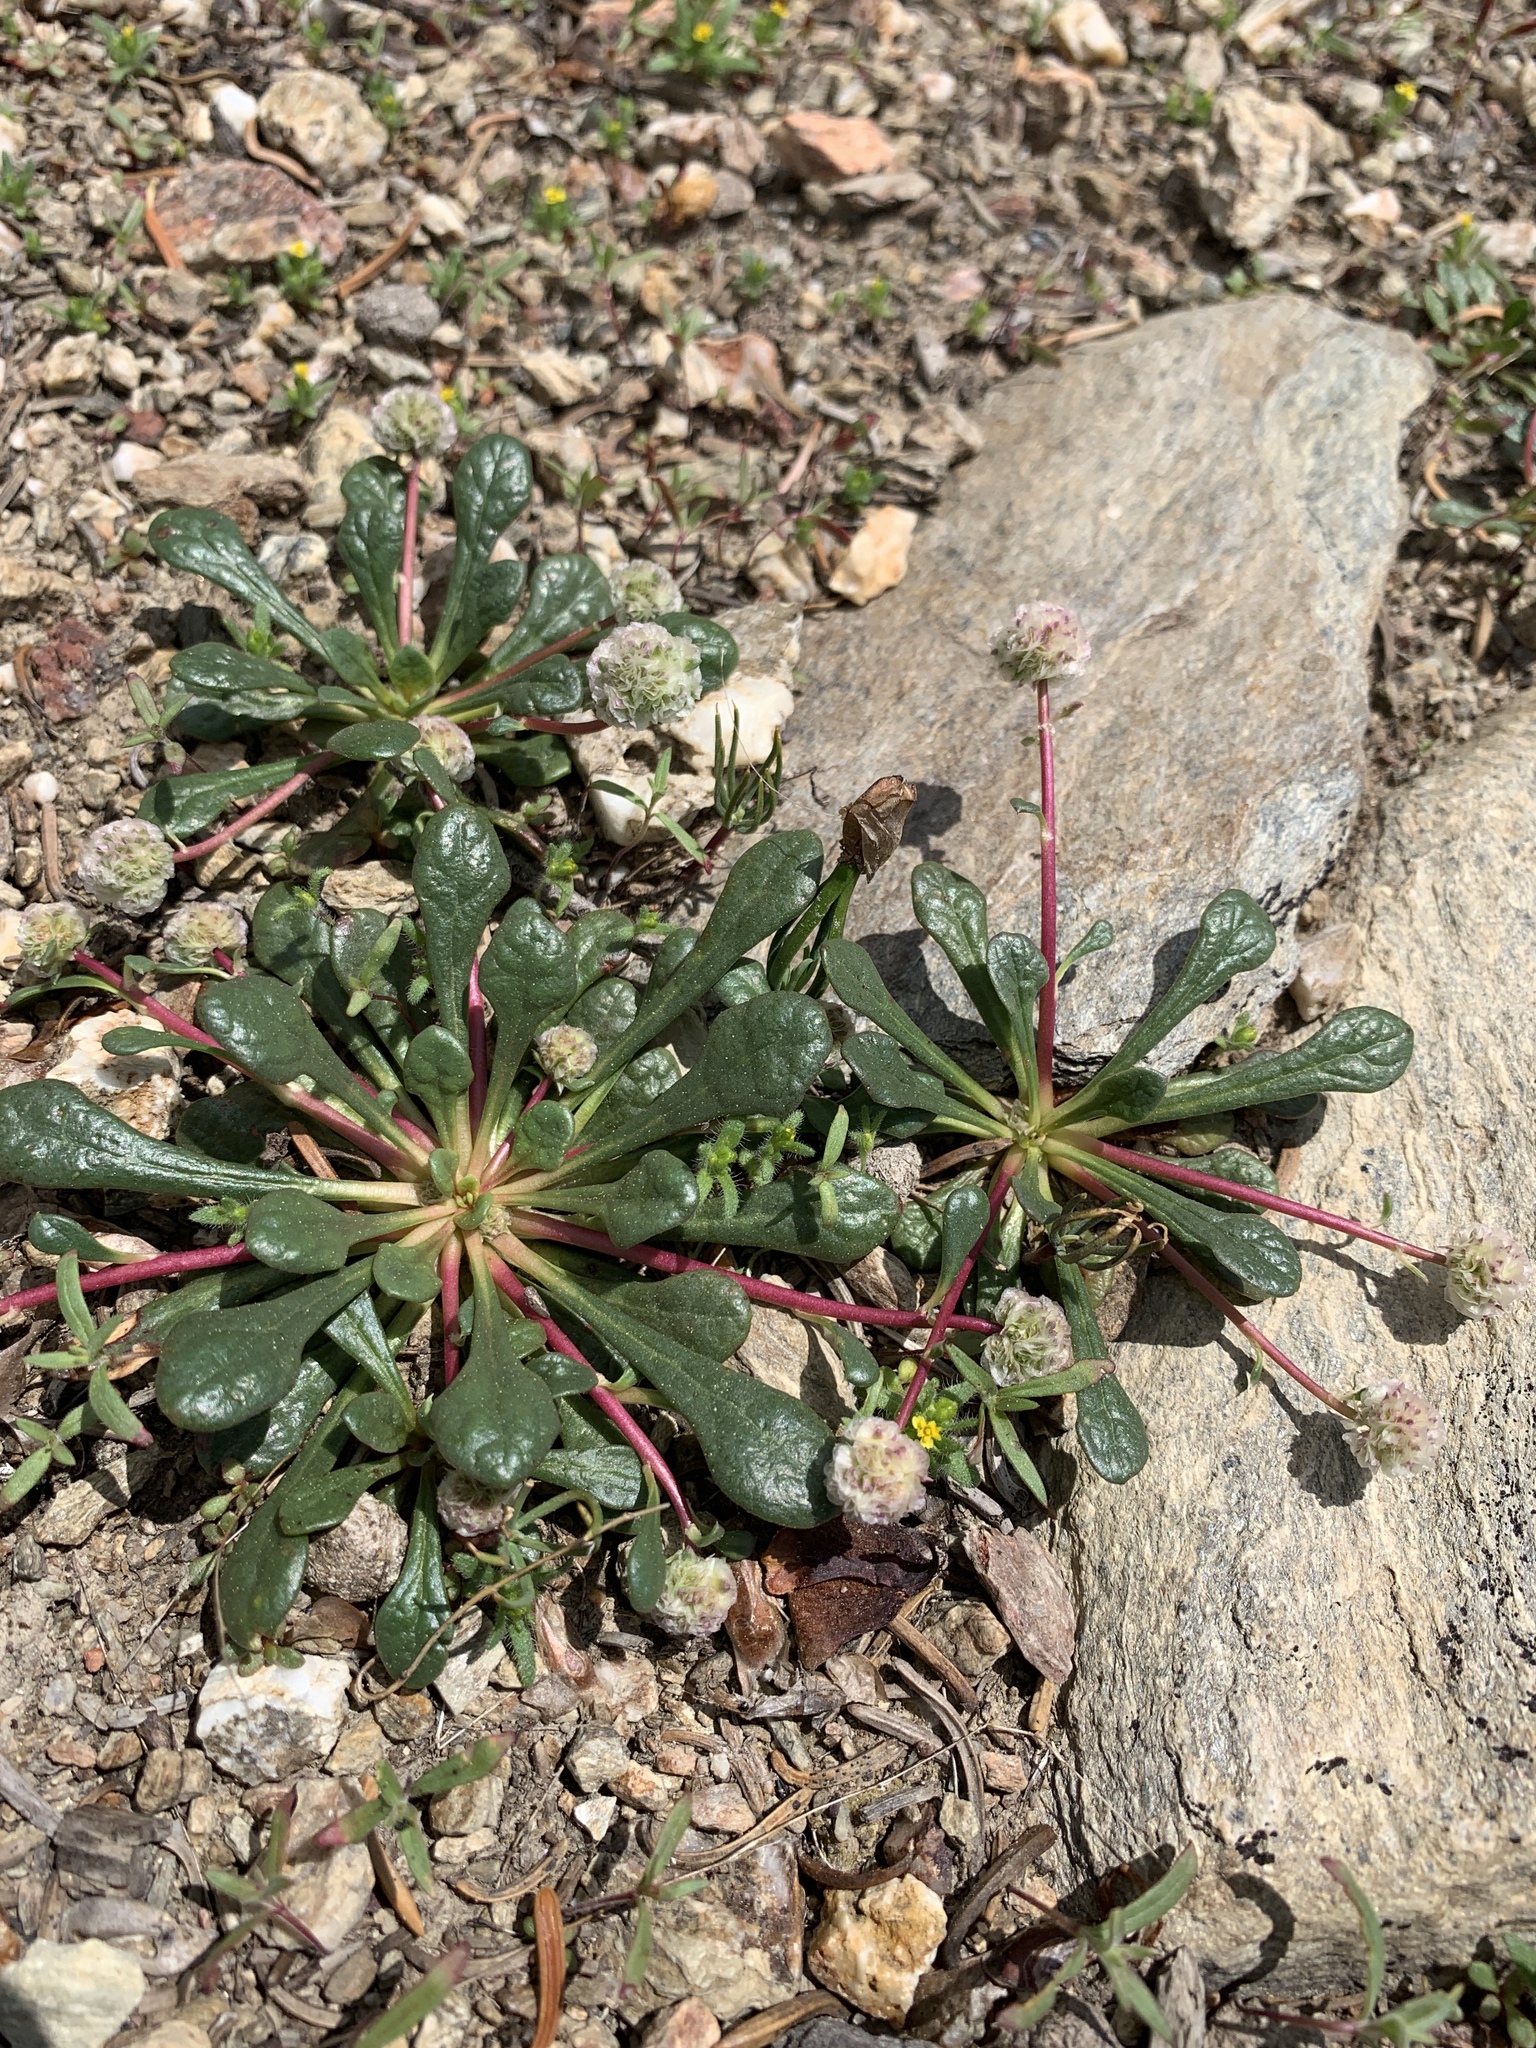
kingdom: Plantae
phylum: Tracheophyta
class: Magnoliopsida
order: Caryophyllales
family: Montiaceae
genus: Calyptridium
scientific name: Calyptridium monospermum
